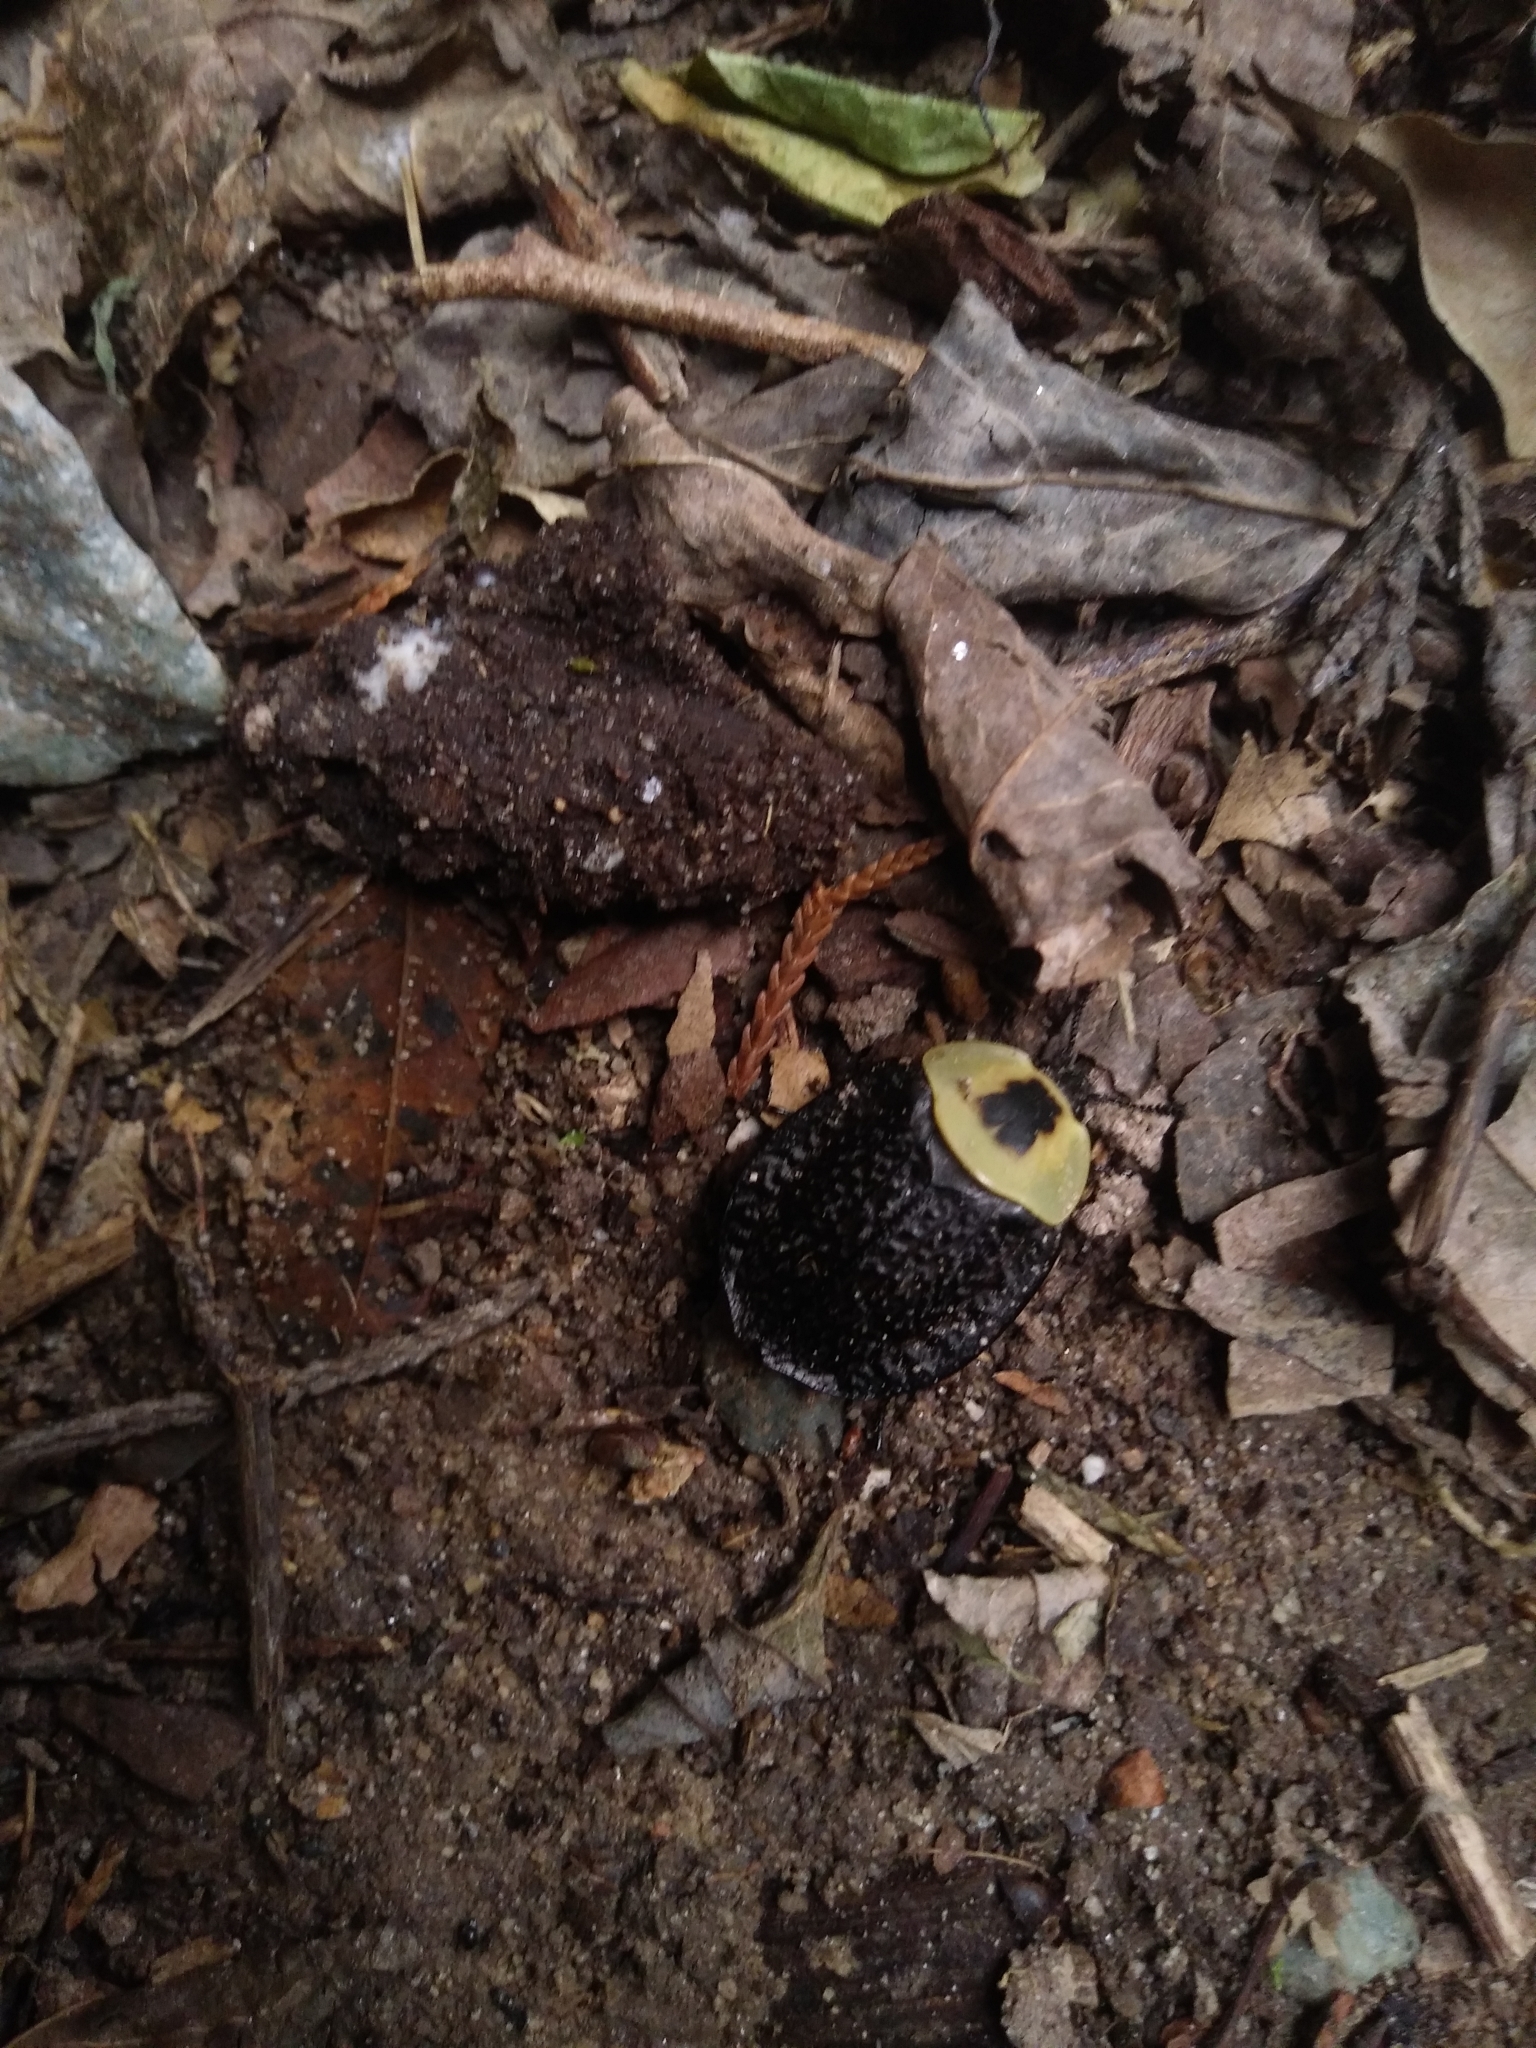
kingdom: Animalia
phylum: Arthropoda
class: Insecta
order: Coleoptera
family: Staphylinidae
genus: Necrophila
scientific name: Necrophila americana
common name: American carrion beetle
